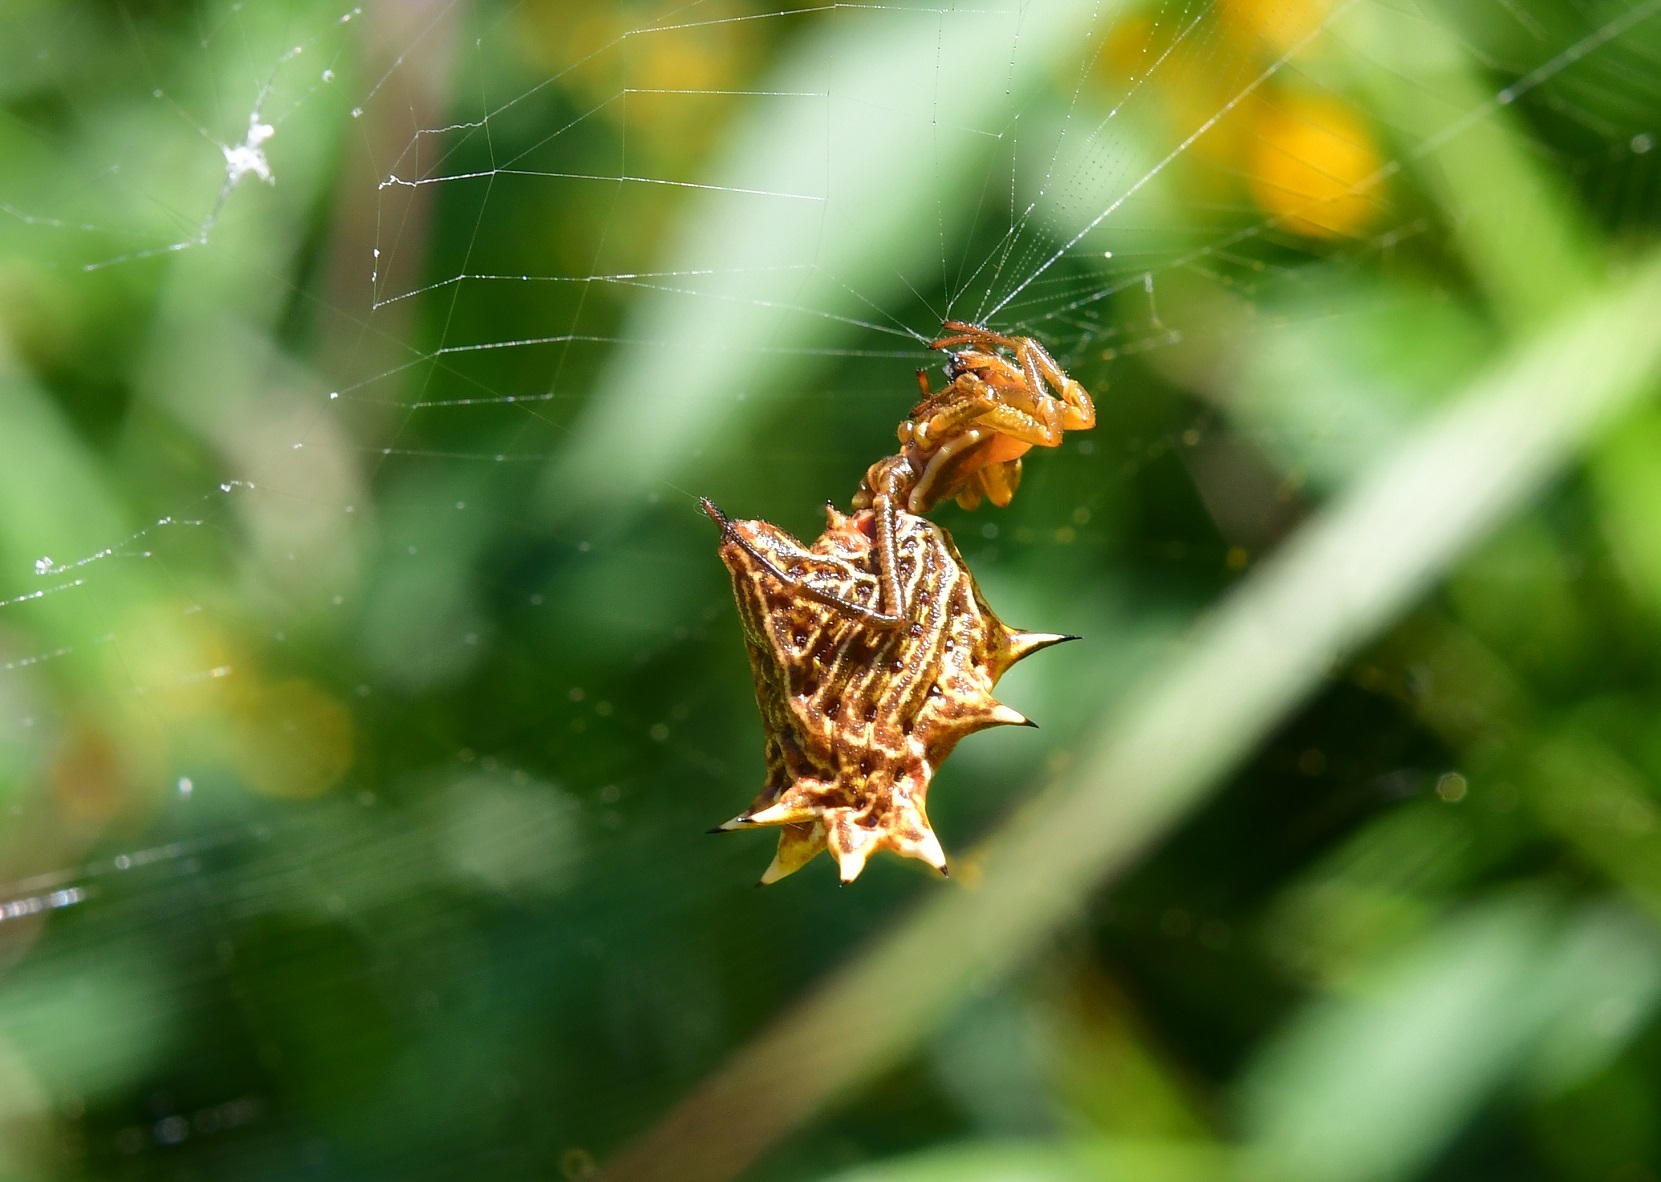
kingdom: Animalia
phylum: Arthropoda
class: Arachnida
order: Araneae
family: Araneidae
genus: Micrathena
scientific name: Micrathena gracilis
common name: Orb weavers
